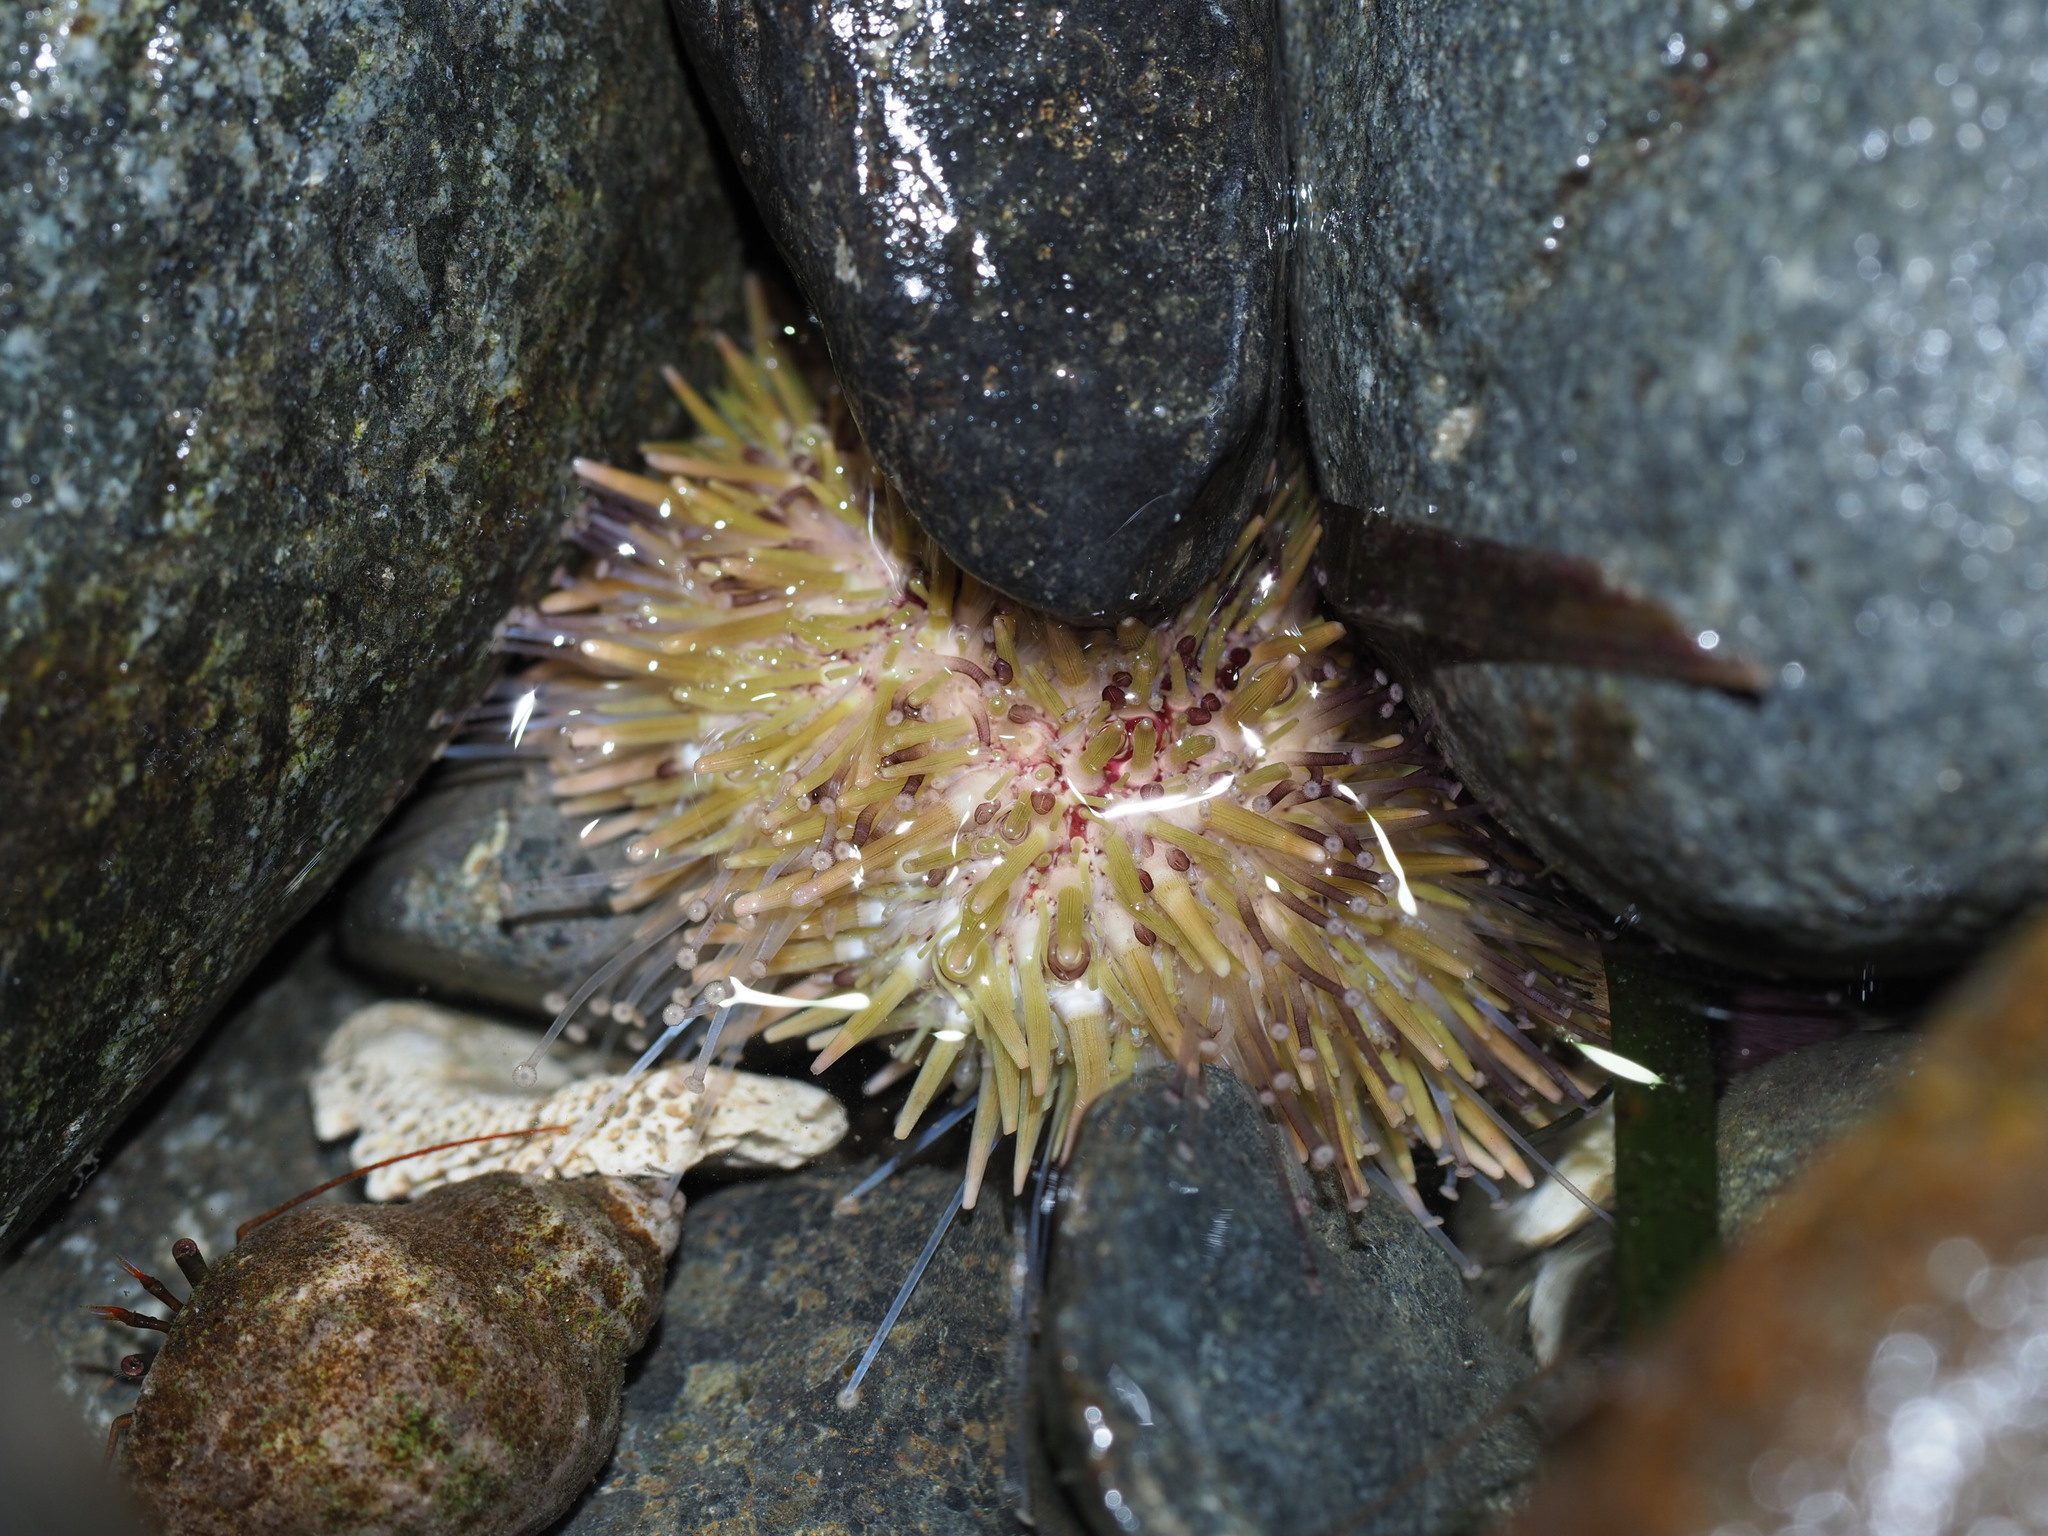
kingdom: Animalia
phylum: Echinodermata
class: Echinoidea
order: Camarodonta
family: Strongylocentrotidae
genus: Strongylocentrotus
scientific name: Strongylocentrotus droebachiensis
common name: Northern sea urchin
